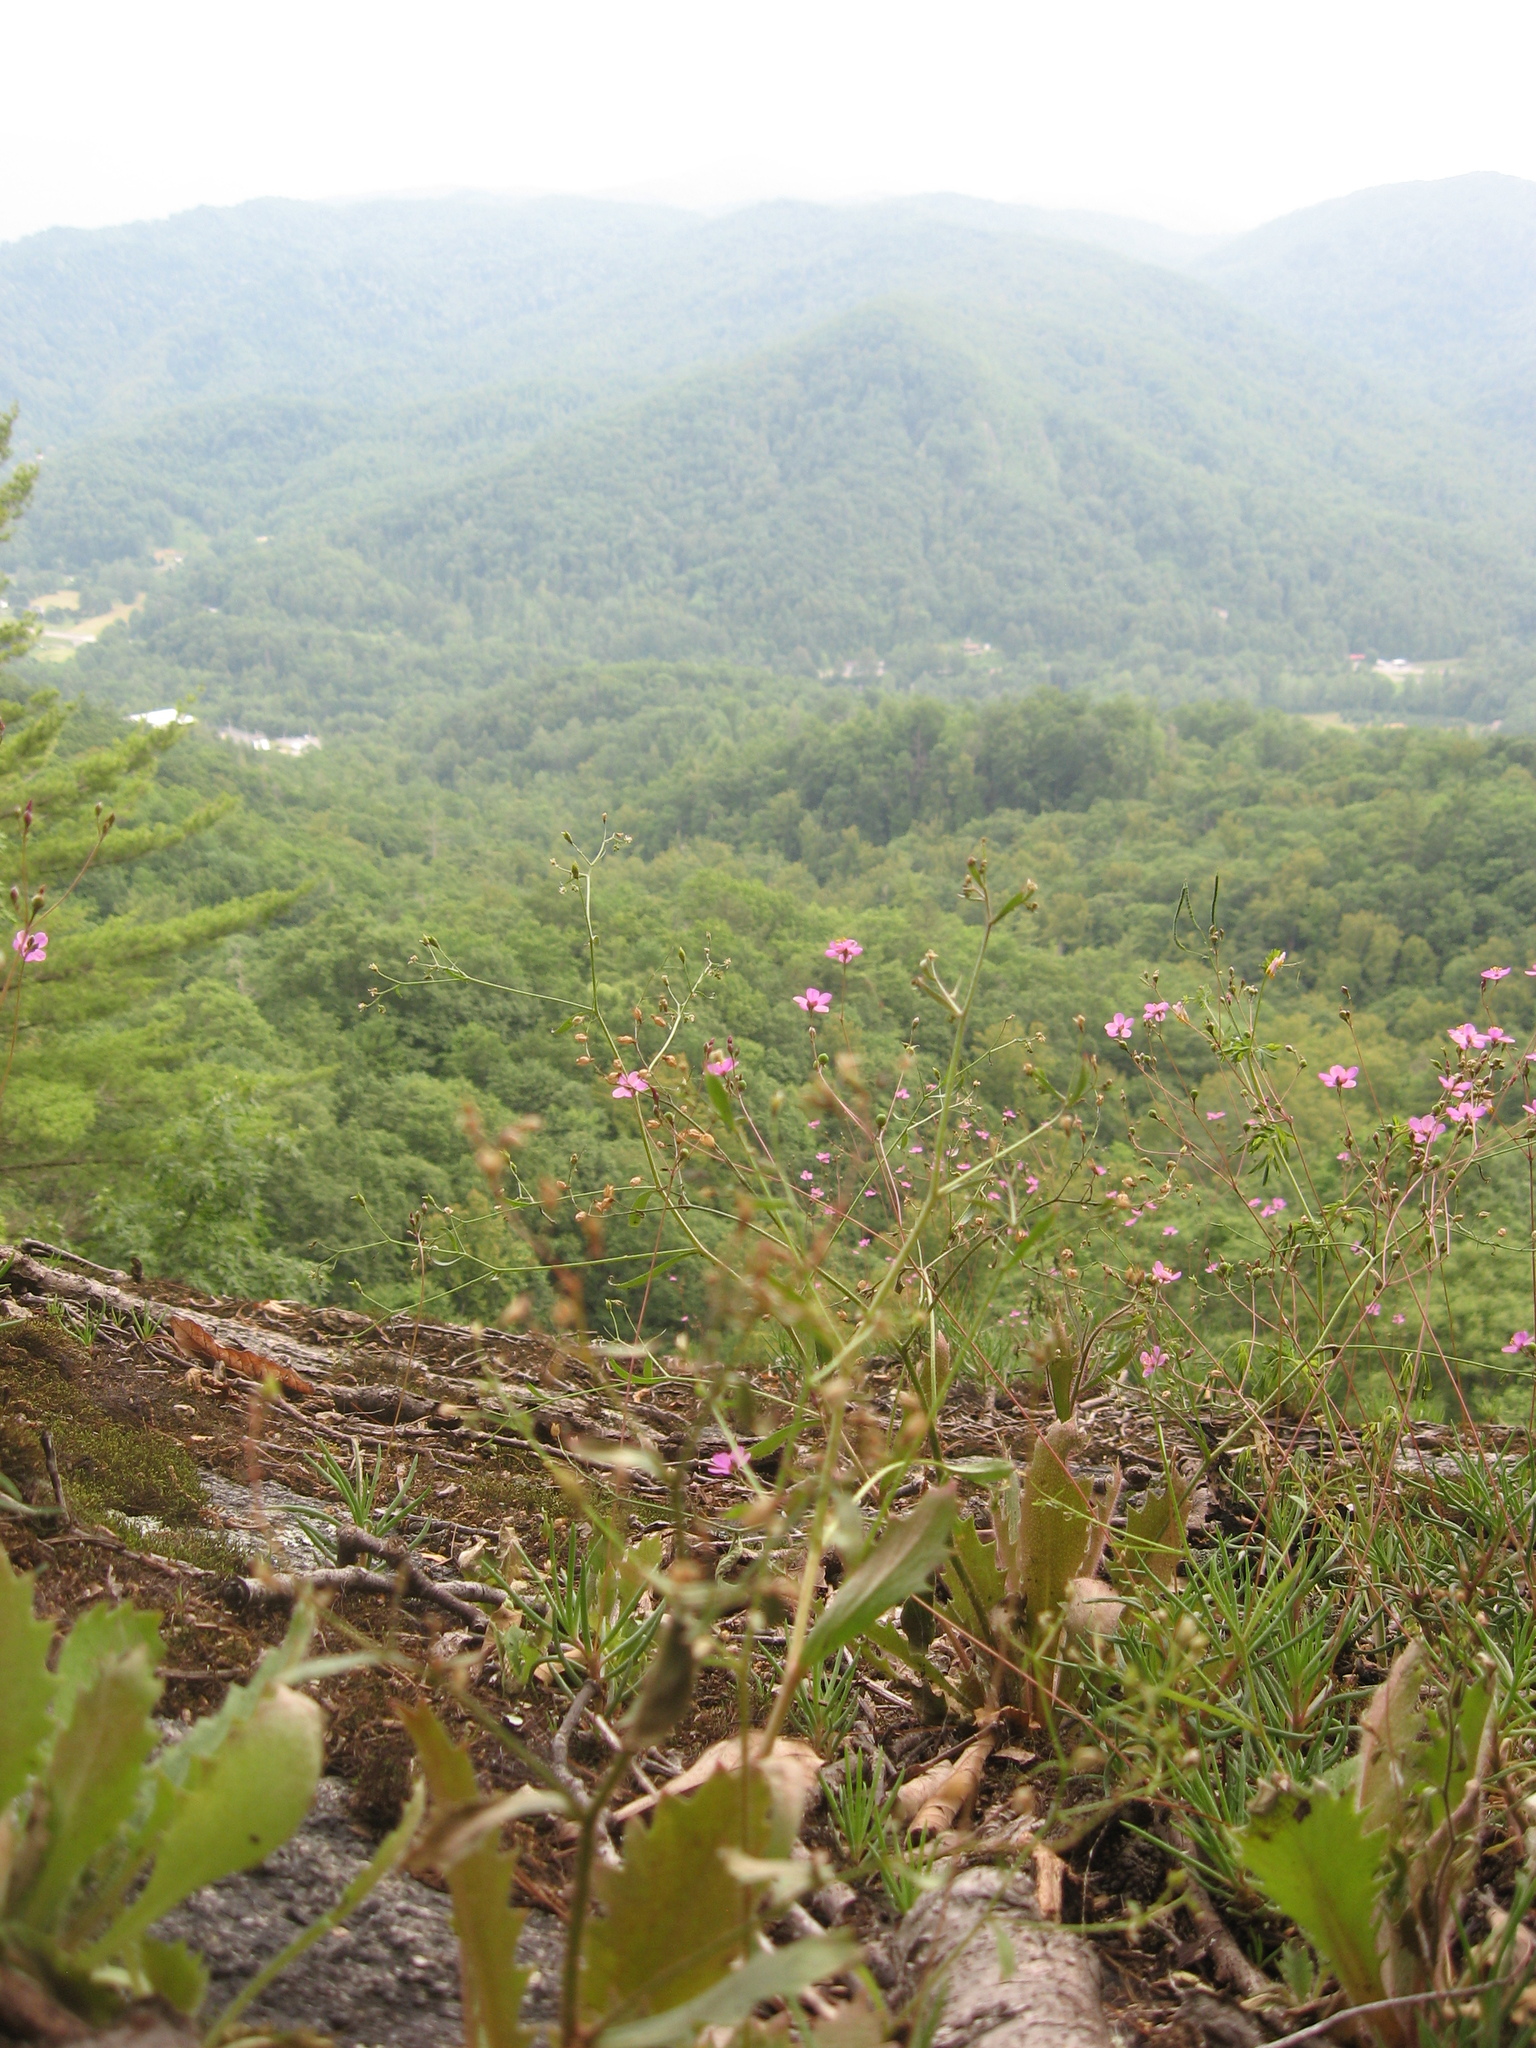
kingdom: Plantae
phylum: Tracheophyta
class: Magnoliopsida
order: Caryophyllales
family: Montiaceae
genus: Phemeranthus
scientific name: Phemeranthus teretifolius
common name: Quill fameflower
